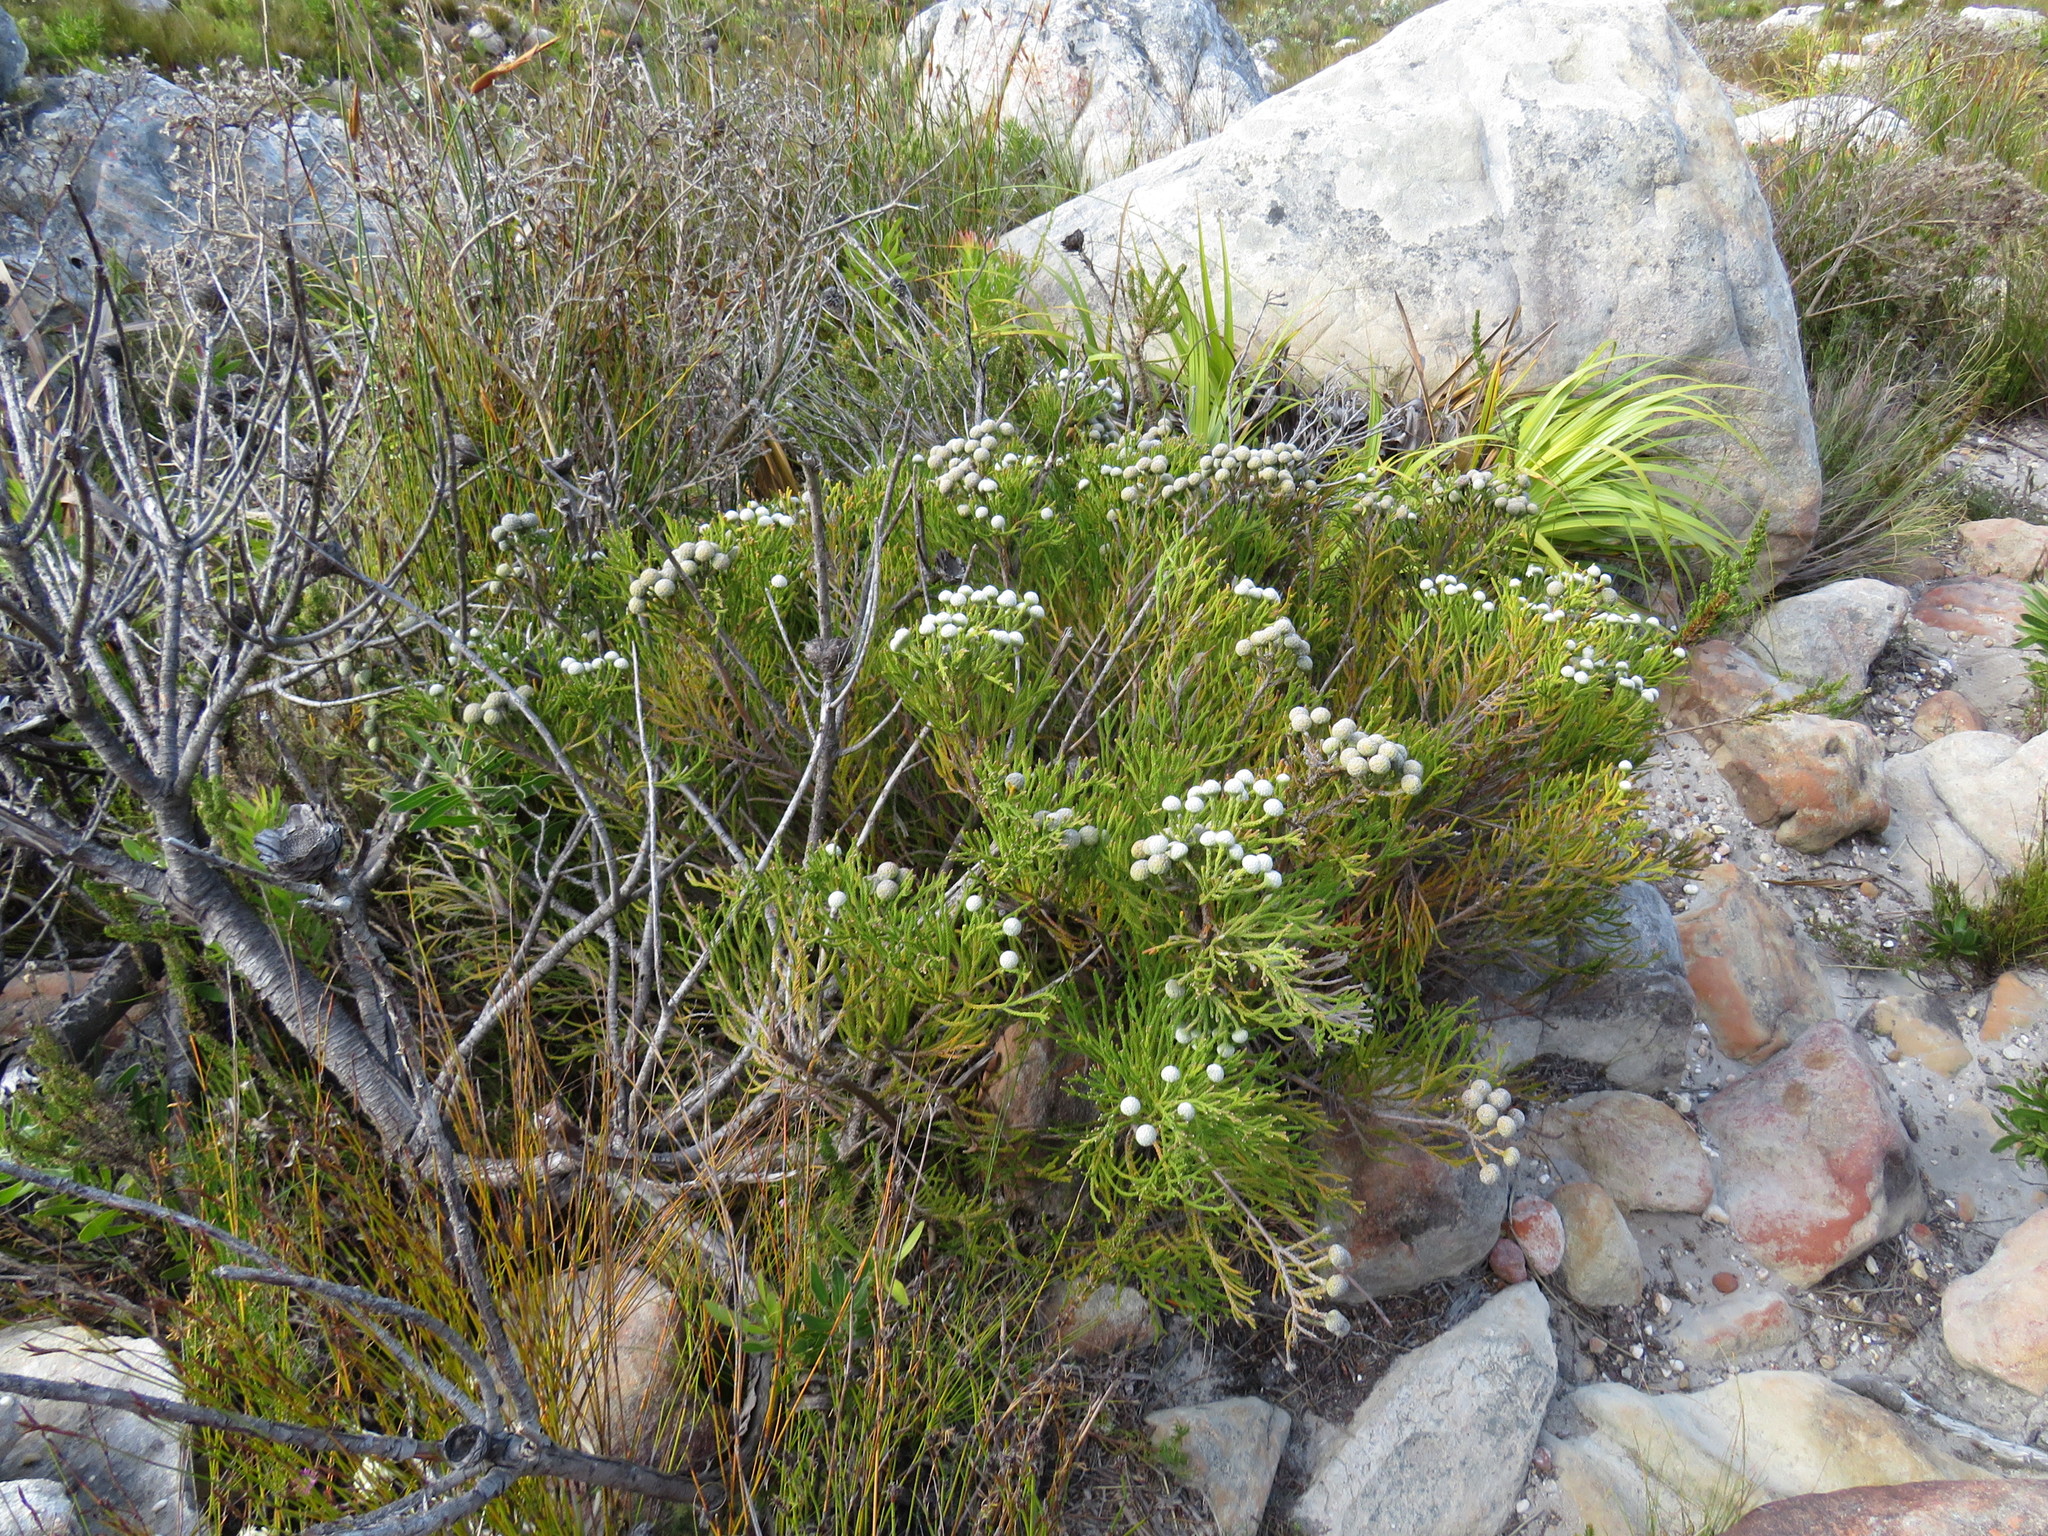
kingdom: Plantae
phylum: Tracheophyta
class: Magnoliopsida
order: Bruniales
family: Bruniaceae
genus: Brunia
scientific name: Brunia noduliflora
